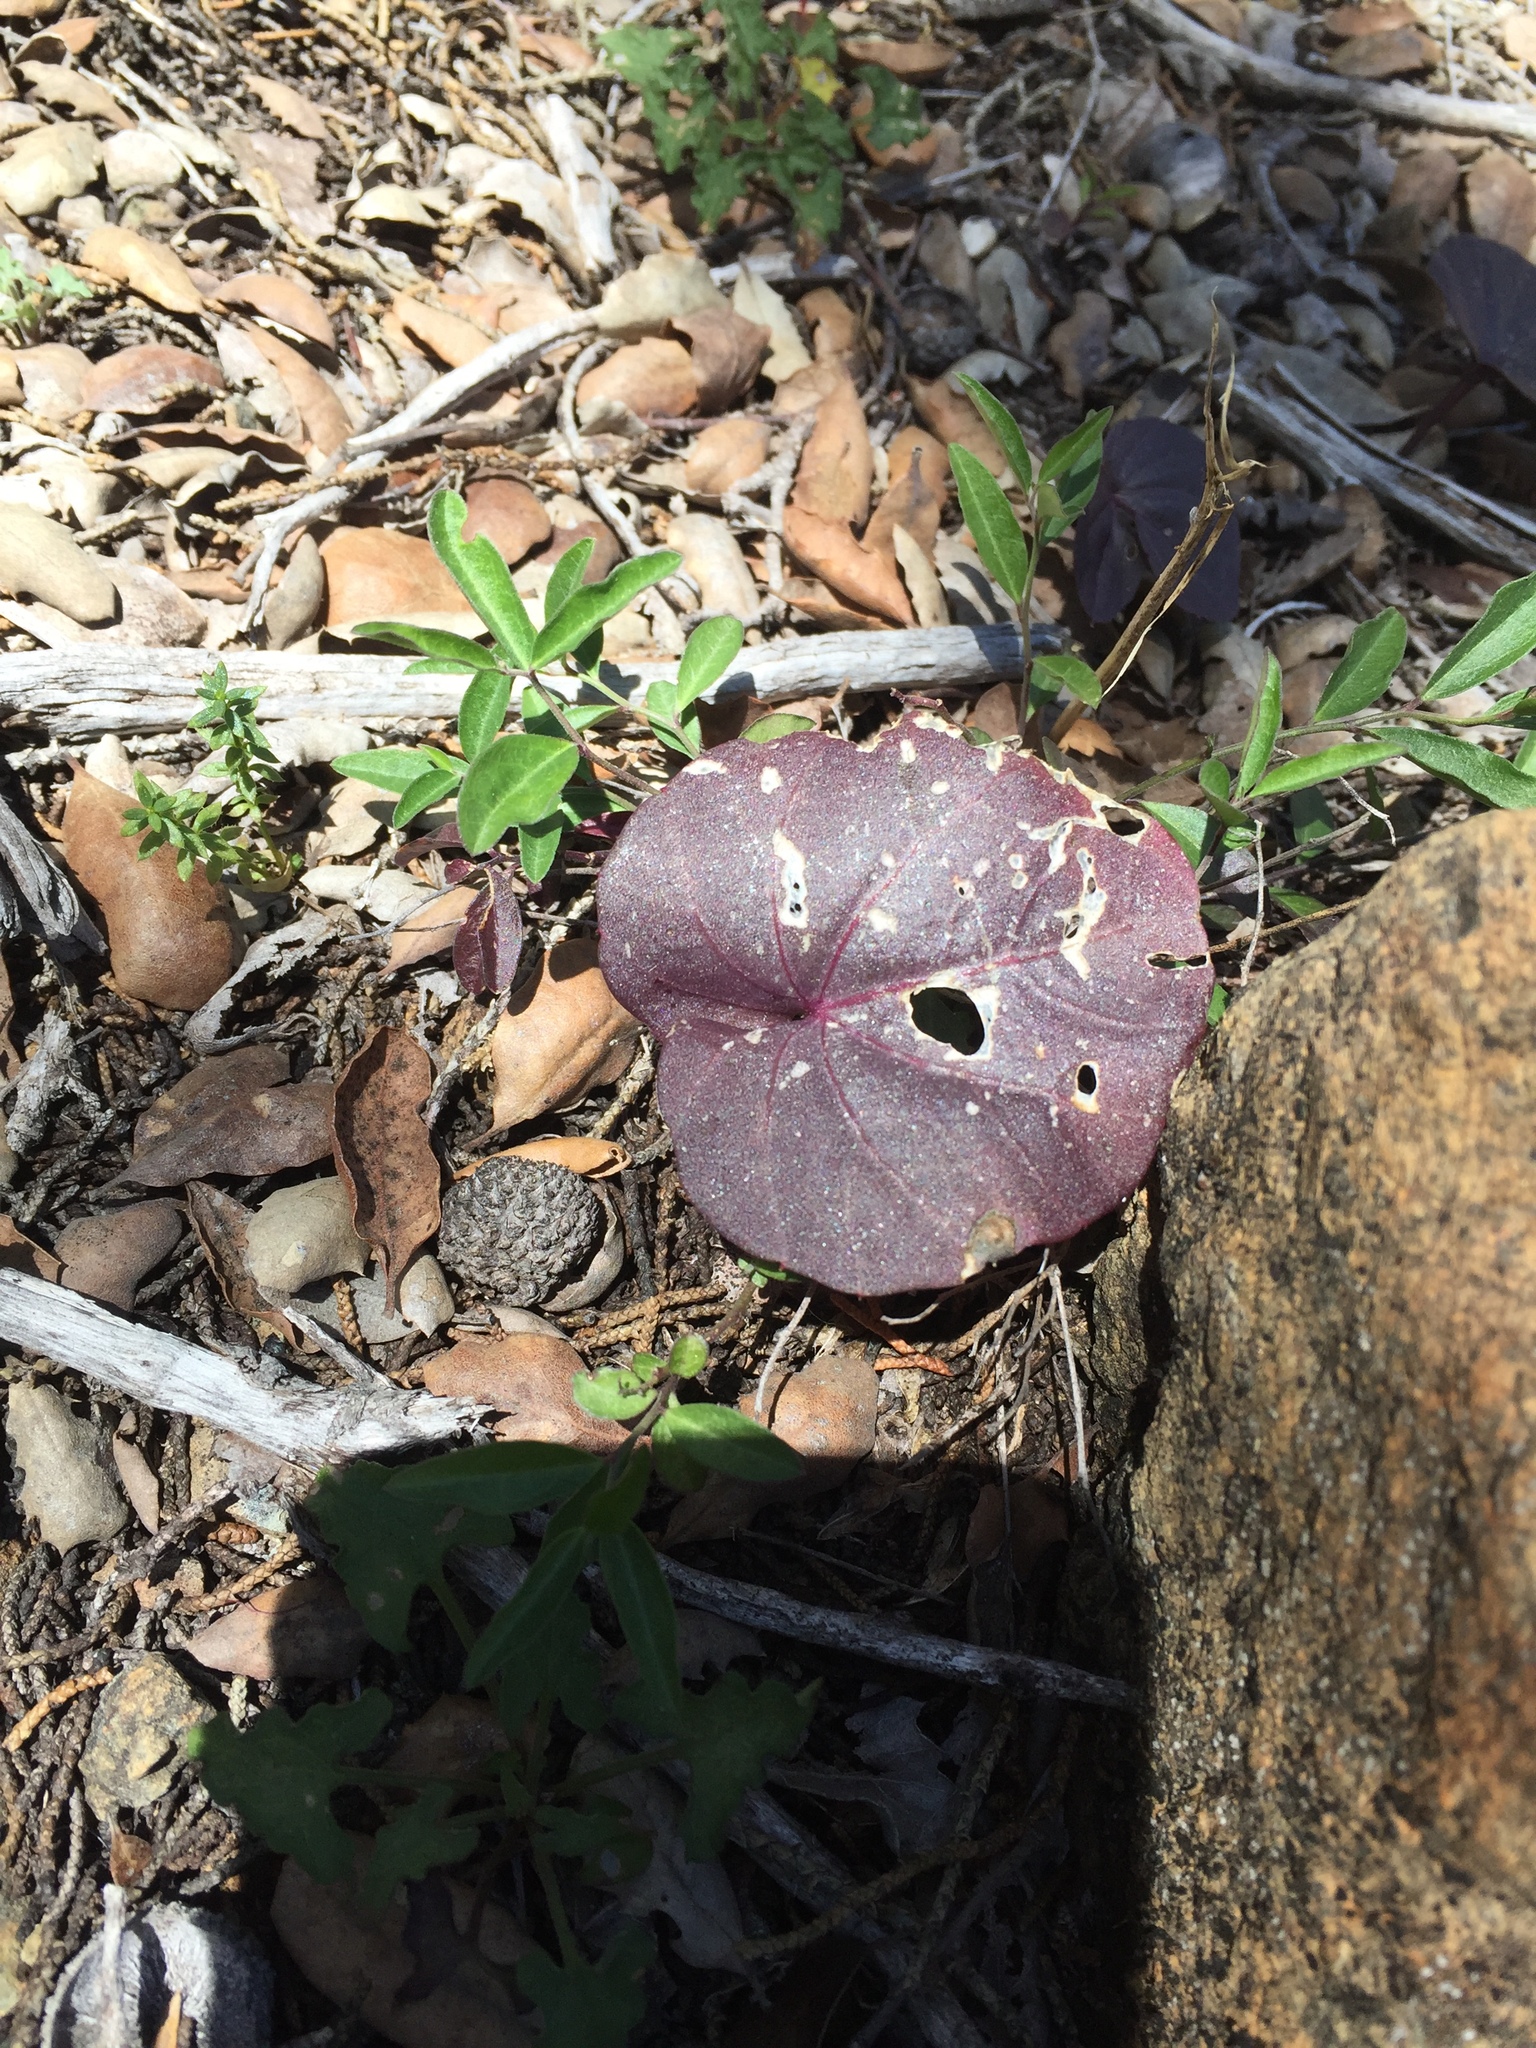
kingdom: Plantae
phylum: Tracheophyta
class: Magnoliopsida
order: Brassicales
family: Brassicaceae
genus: Cardamine
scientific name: Cardamine californica
